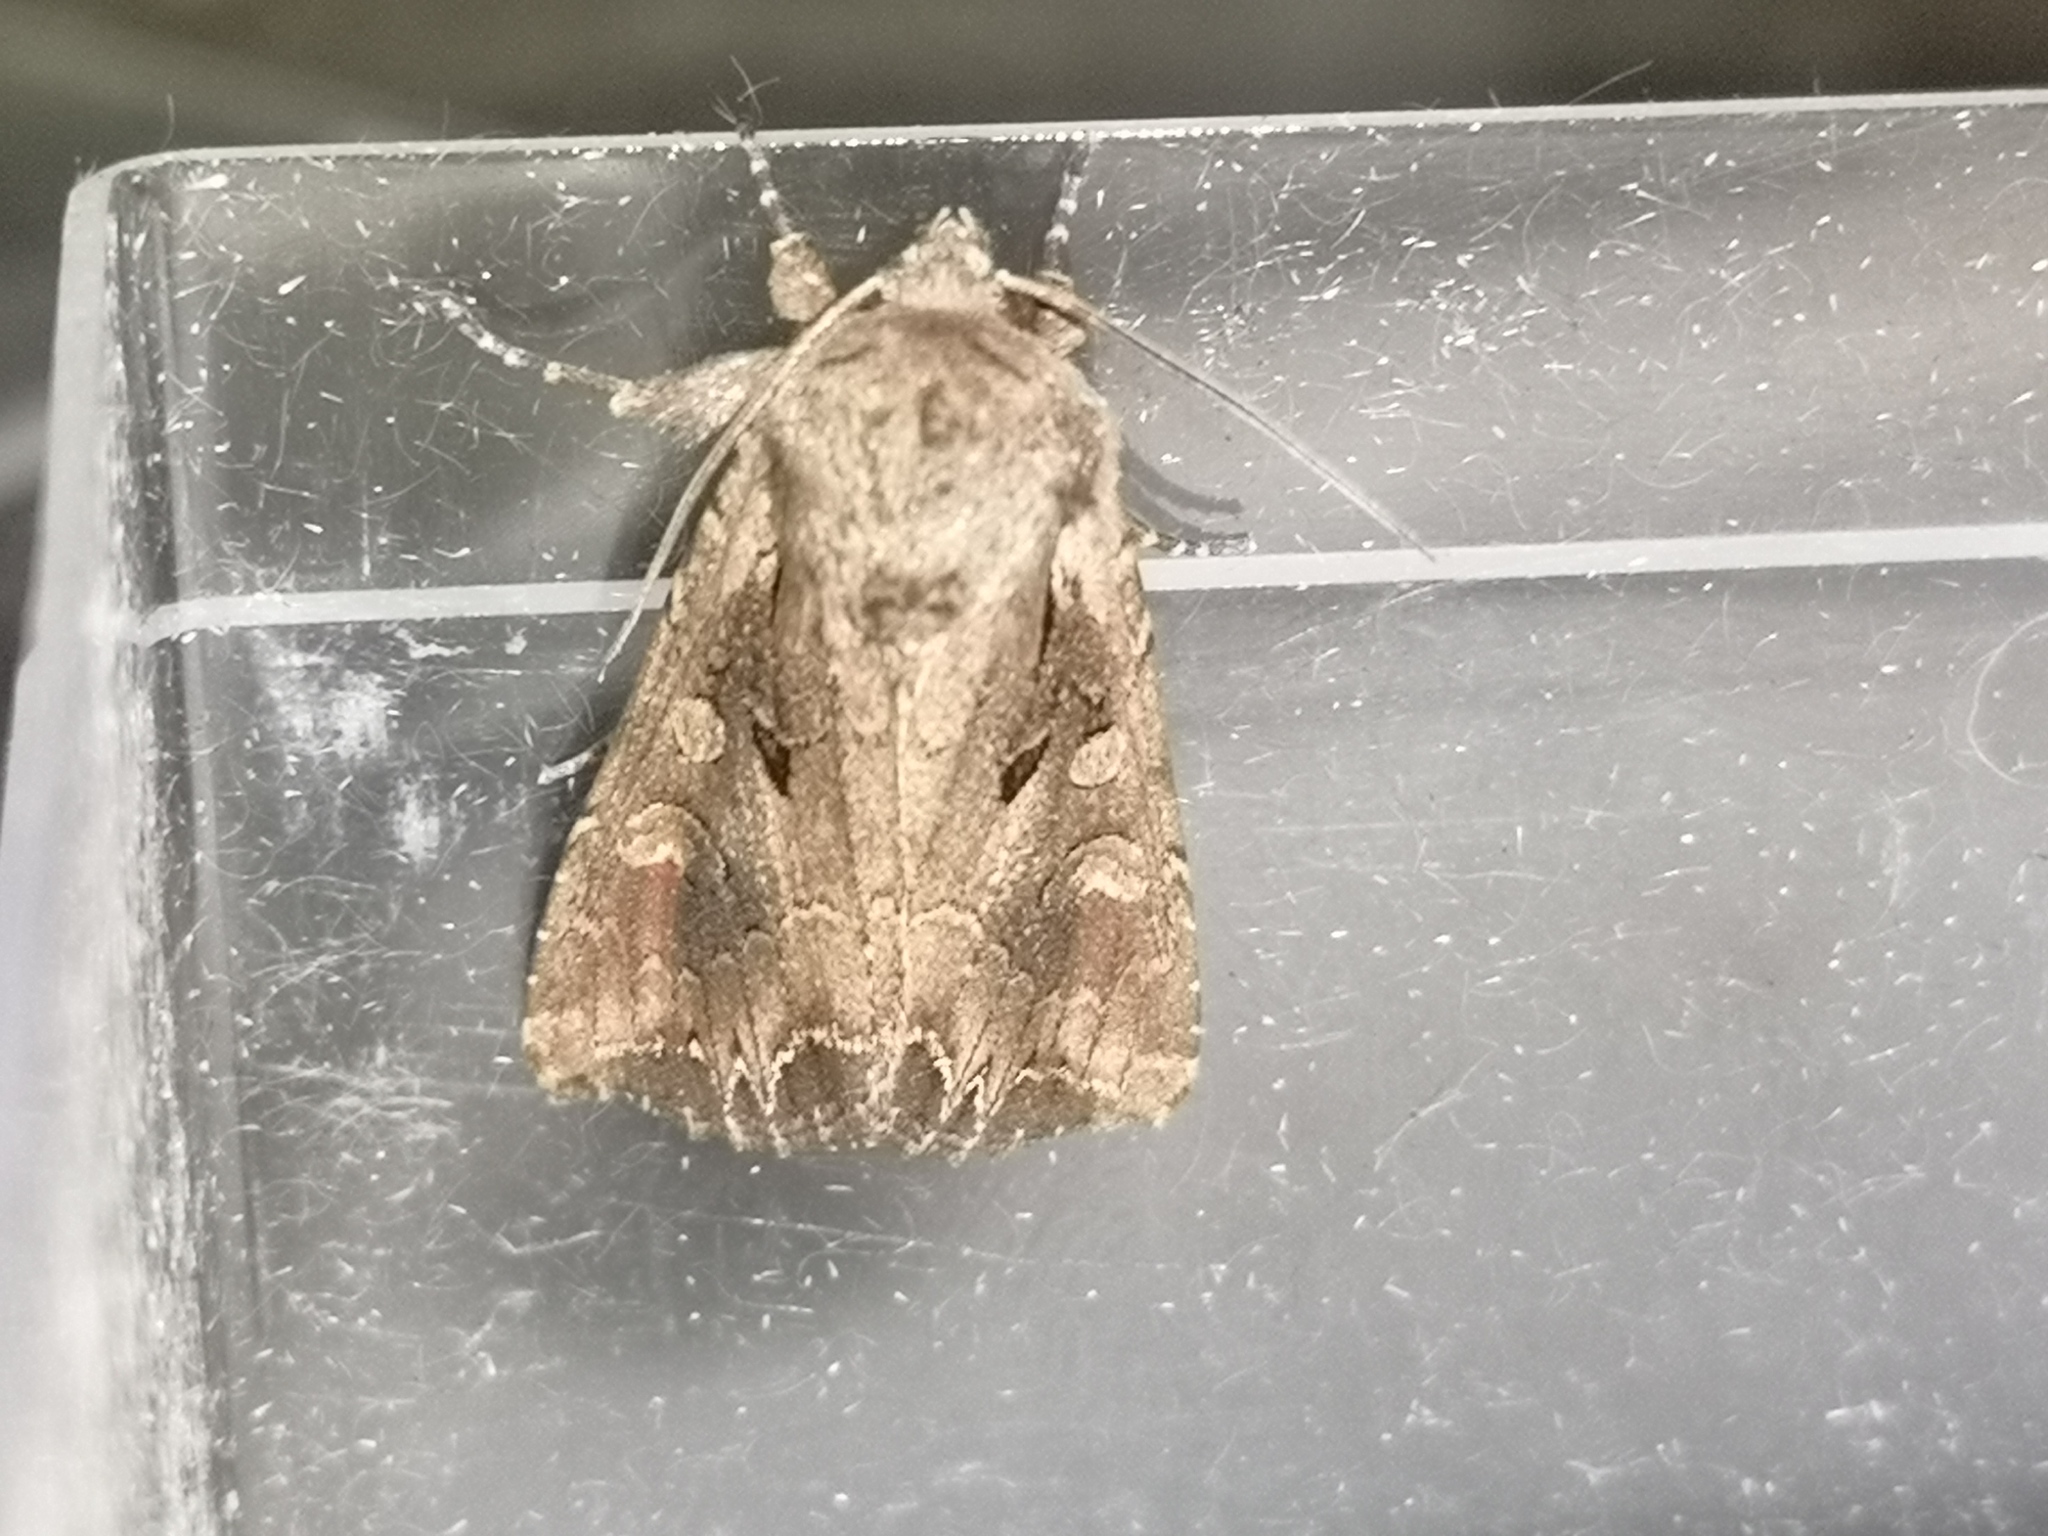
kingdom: Animalia
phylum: Arthropoda
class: Insecta
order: Lepidoptera
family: Noctuidae
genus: Lacanobia
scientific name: Lacanobia suasa
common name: Dog's tooth
